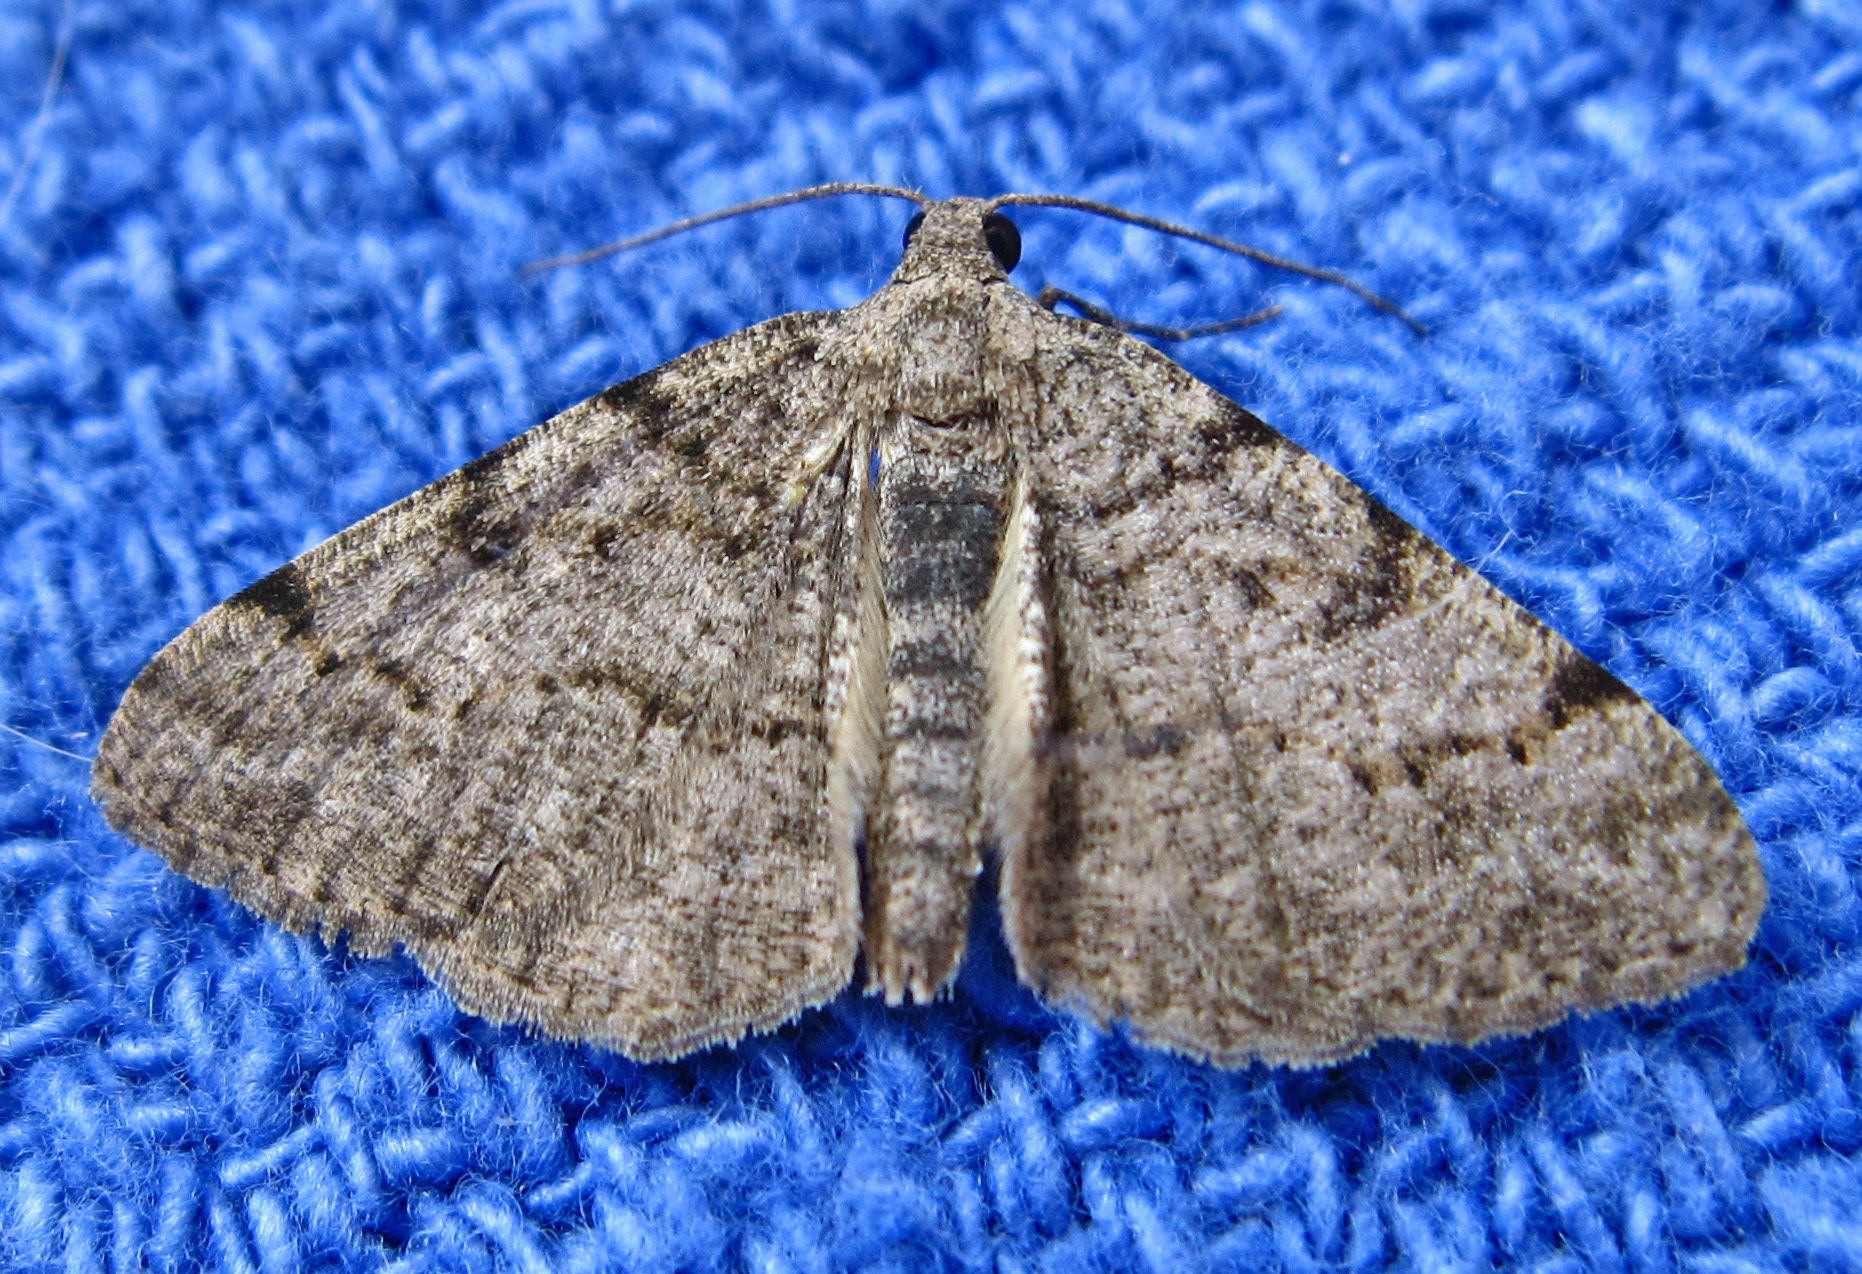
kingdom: Animalia
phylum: Arthropoda
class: Insecta
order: Lepidoptera
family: Geometridae
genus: Digrammia
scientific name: Digrammia gnophosaria
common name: Hollow-spotted angle
